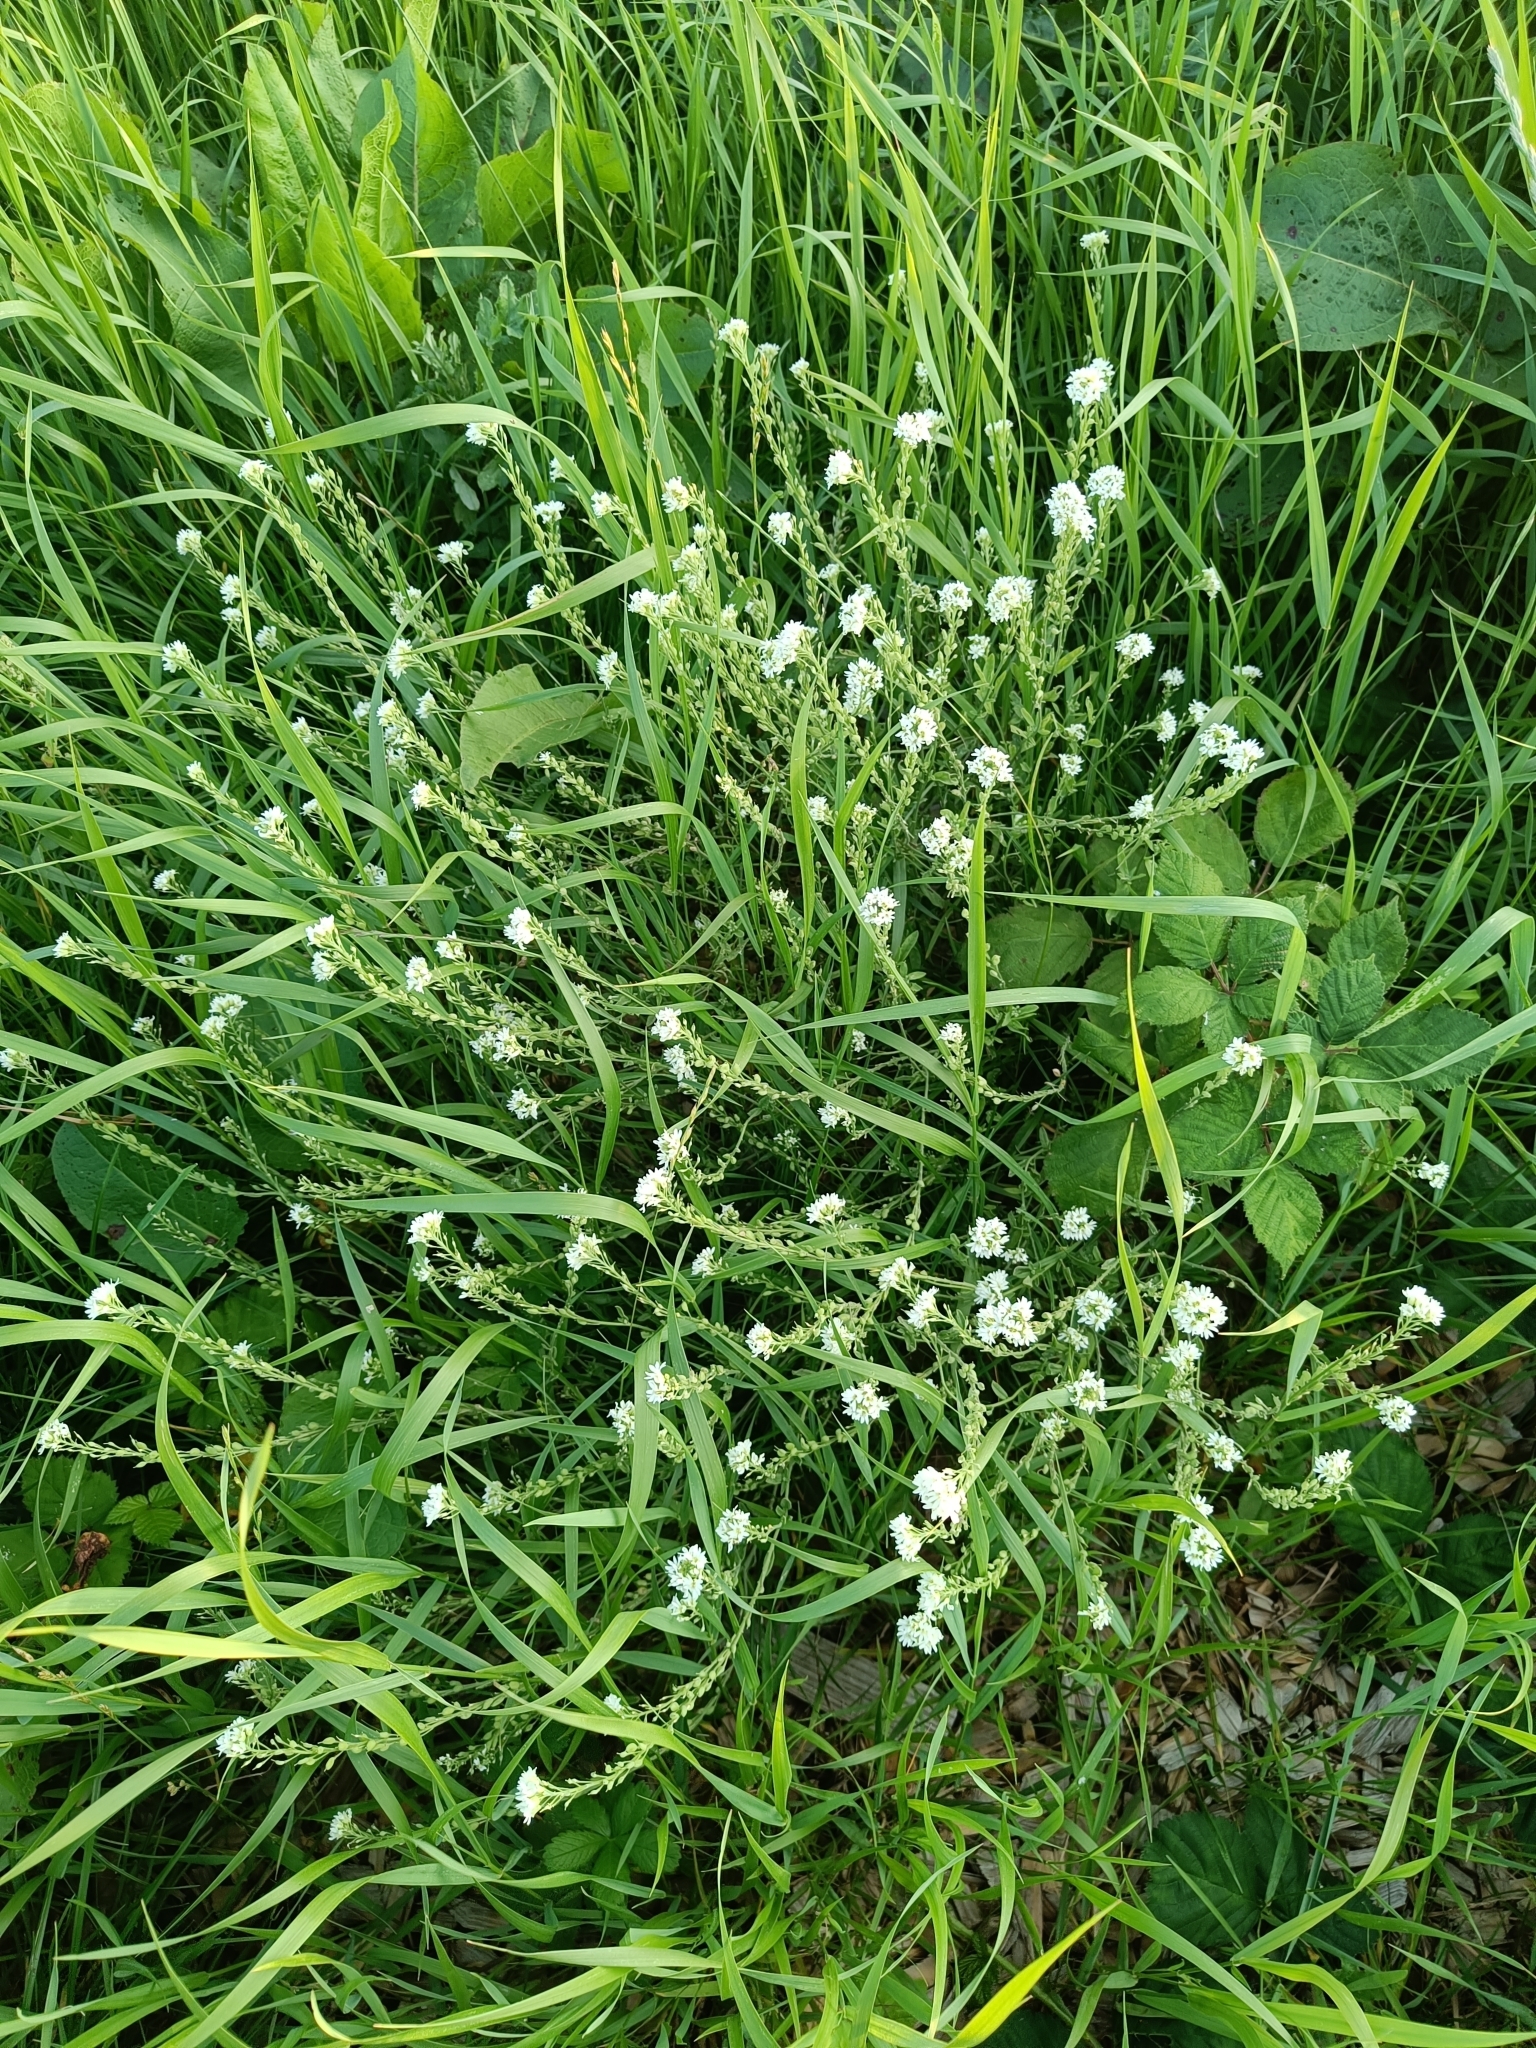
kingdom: Plantae
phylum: Tracheophyta
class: Magnoliopsida
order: Brassicales
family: Brassicaceae
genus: Berteroa
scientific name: Berteroa incana
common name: Hoary alison
